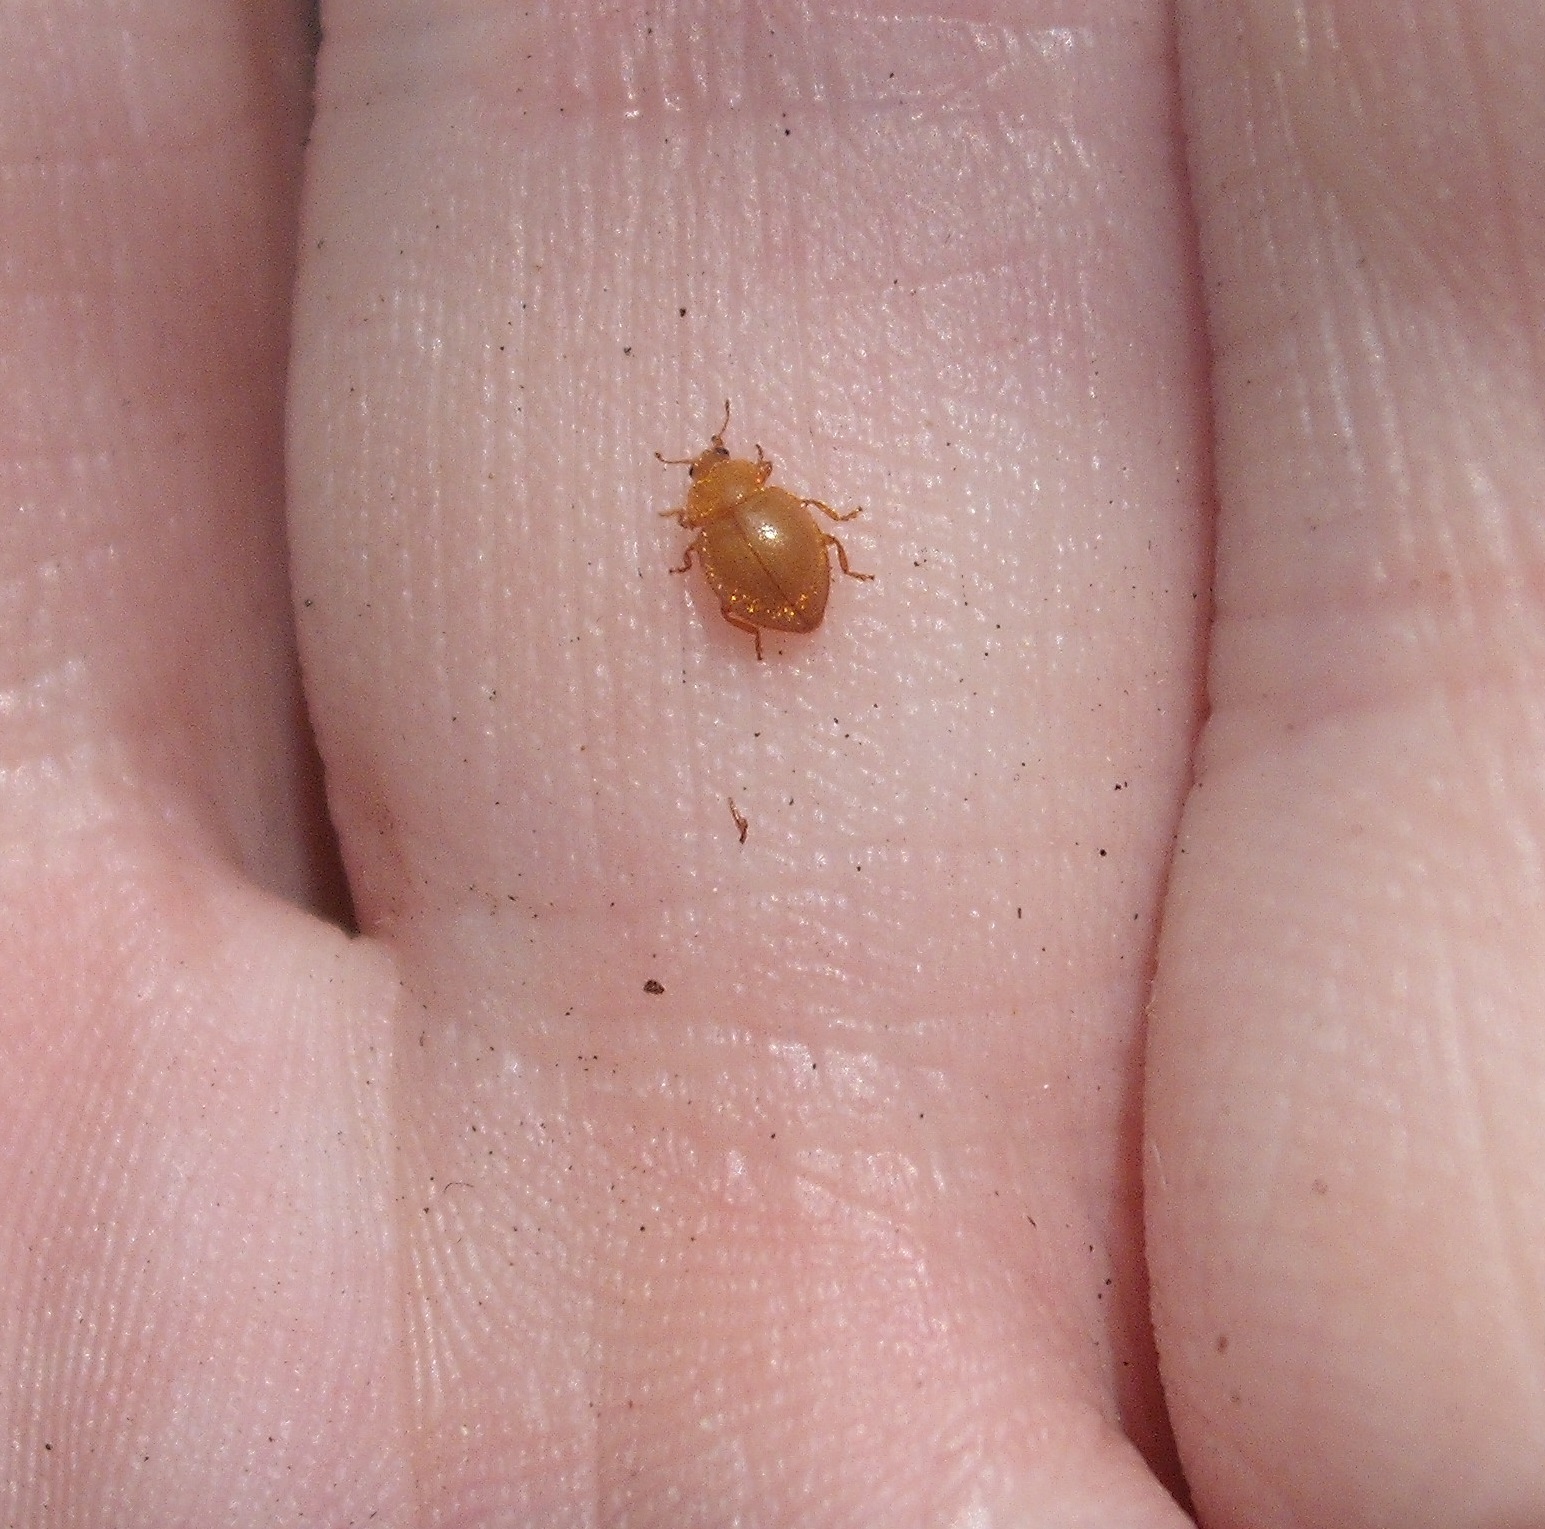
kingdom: Animalia
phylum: Arthropoda
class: Insecta
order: Coleoptera
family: Coccinellidae
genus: Adoxellus
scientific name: Adoxellus
